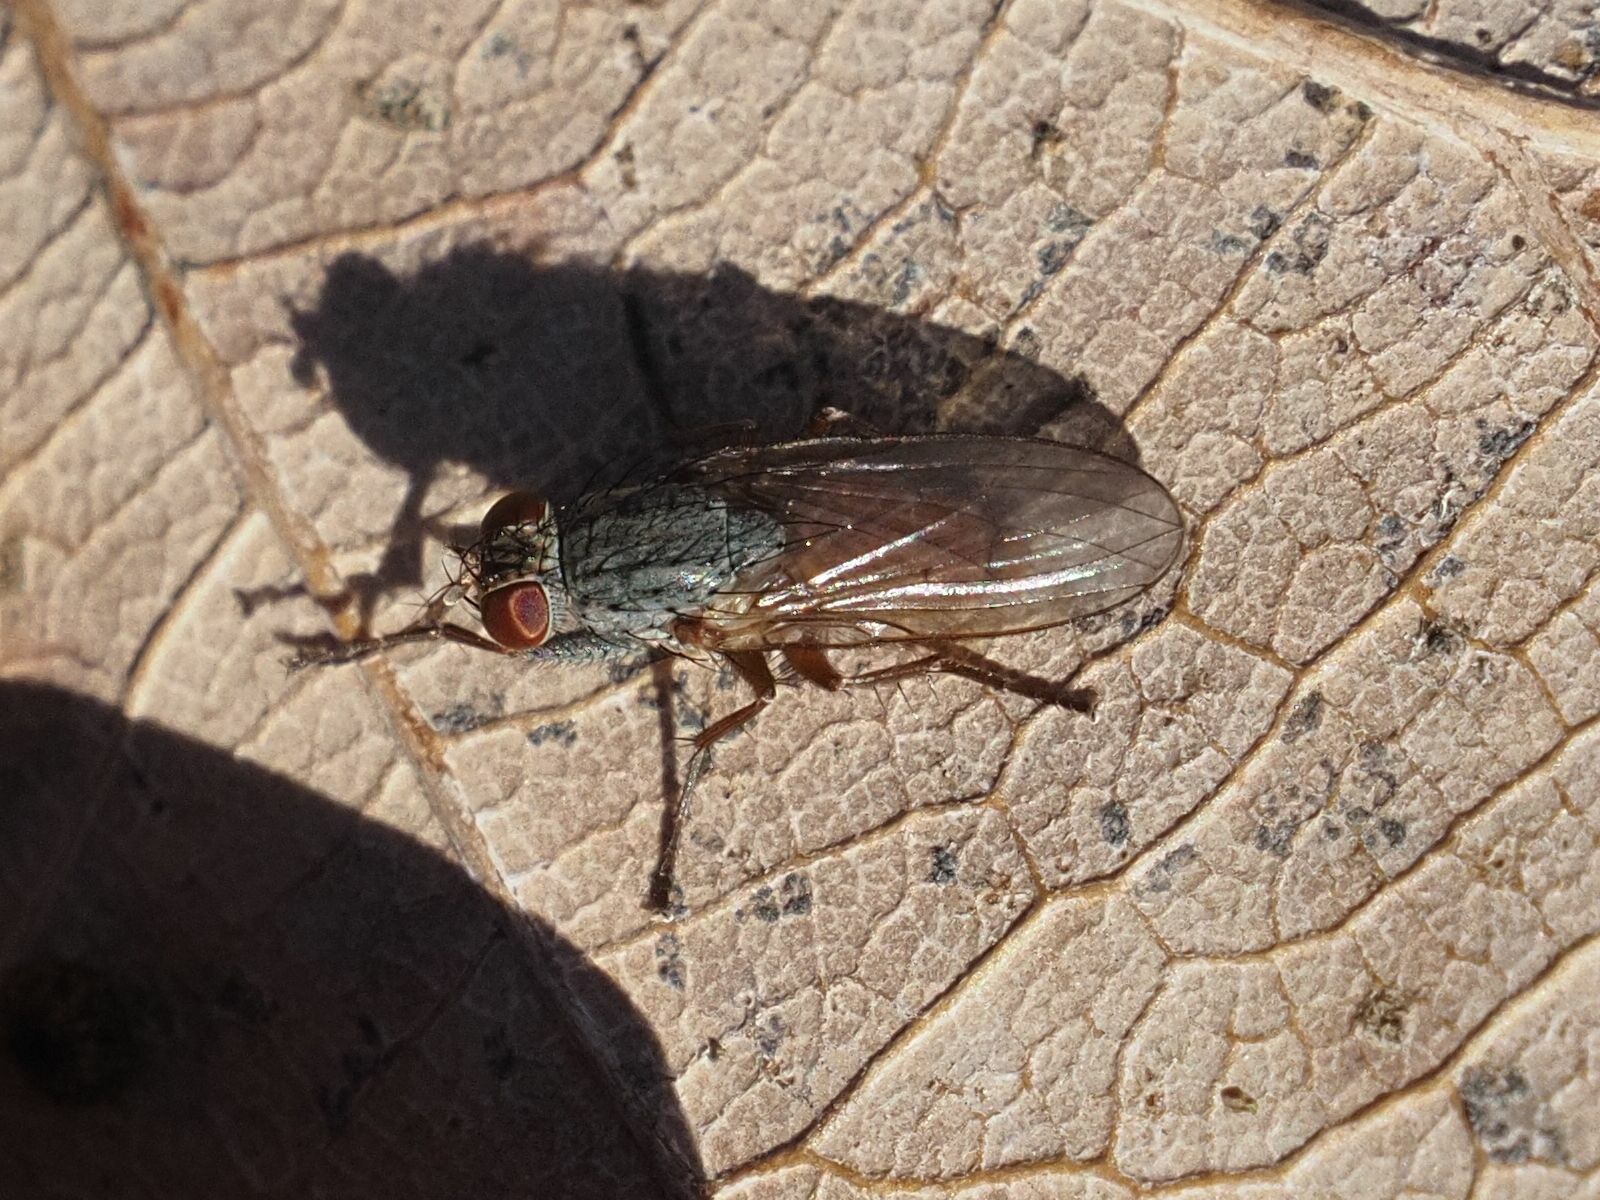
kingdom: Animalia
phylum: Arthropoda
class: Insecta
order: Diptera
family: Muscidae
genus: Lispocephala
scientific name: Lispocephala brachialis
